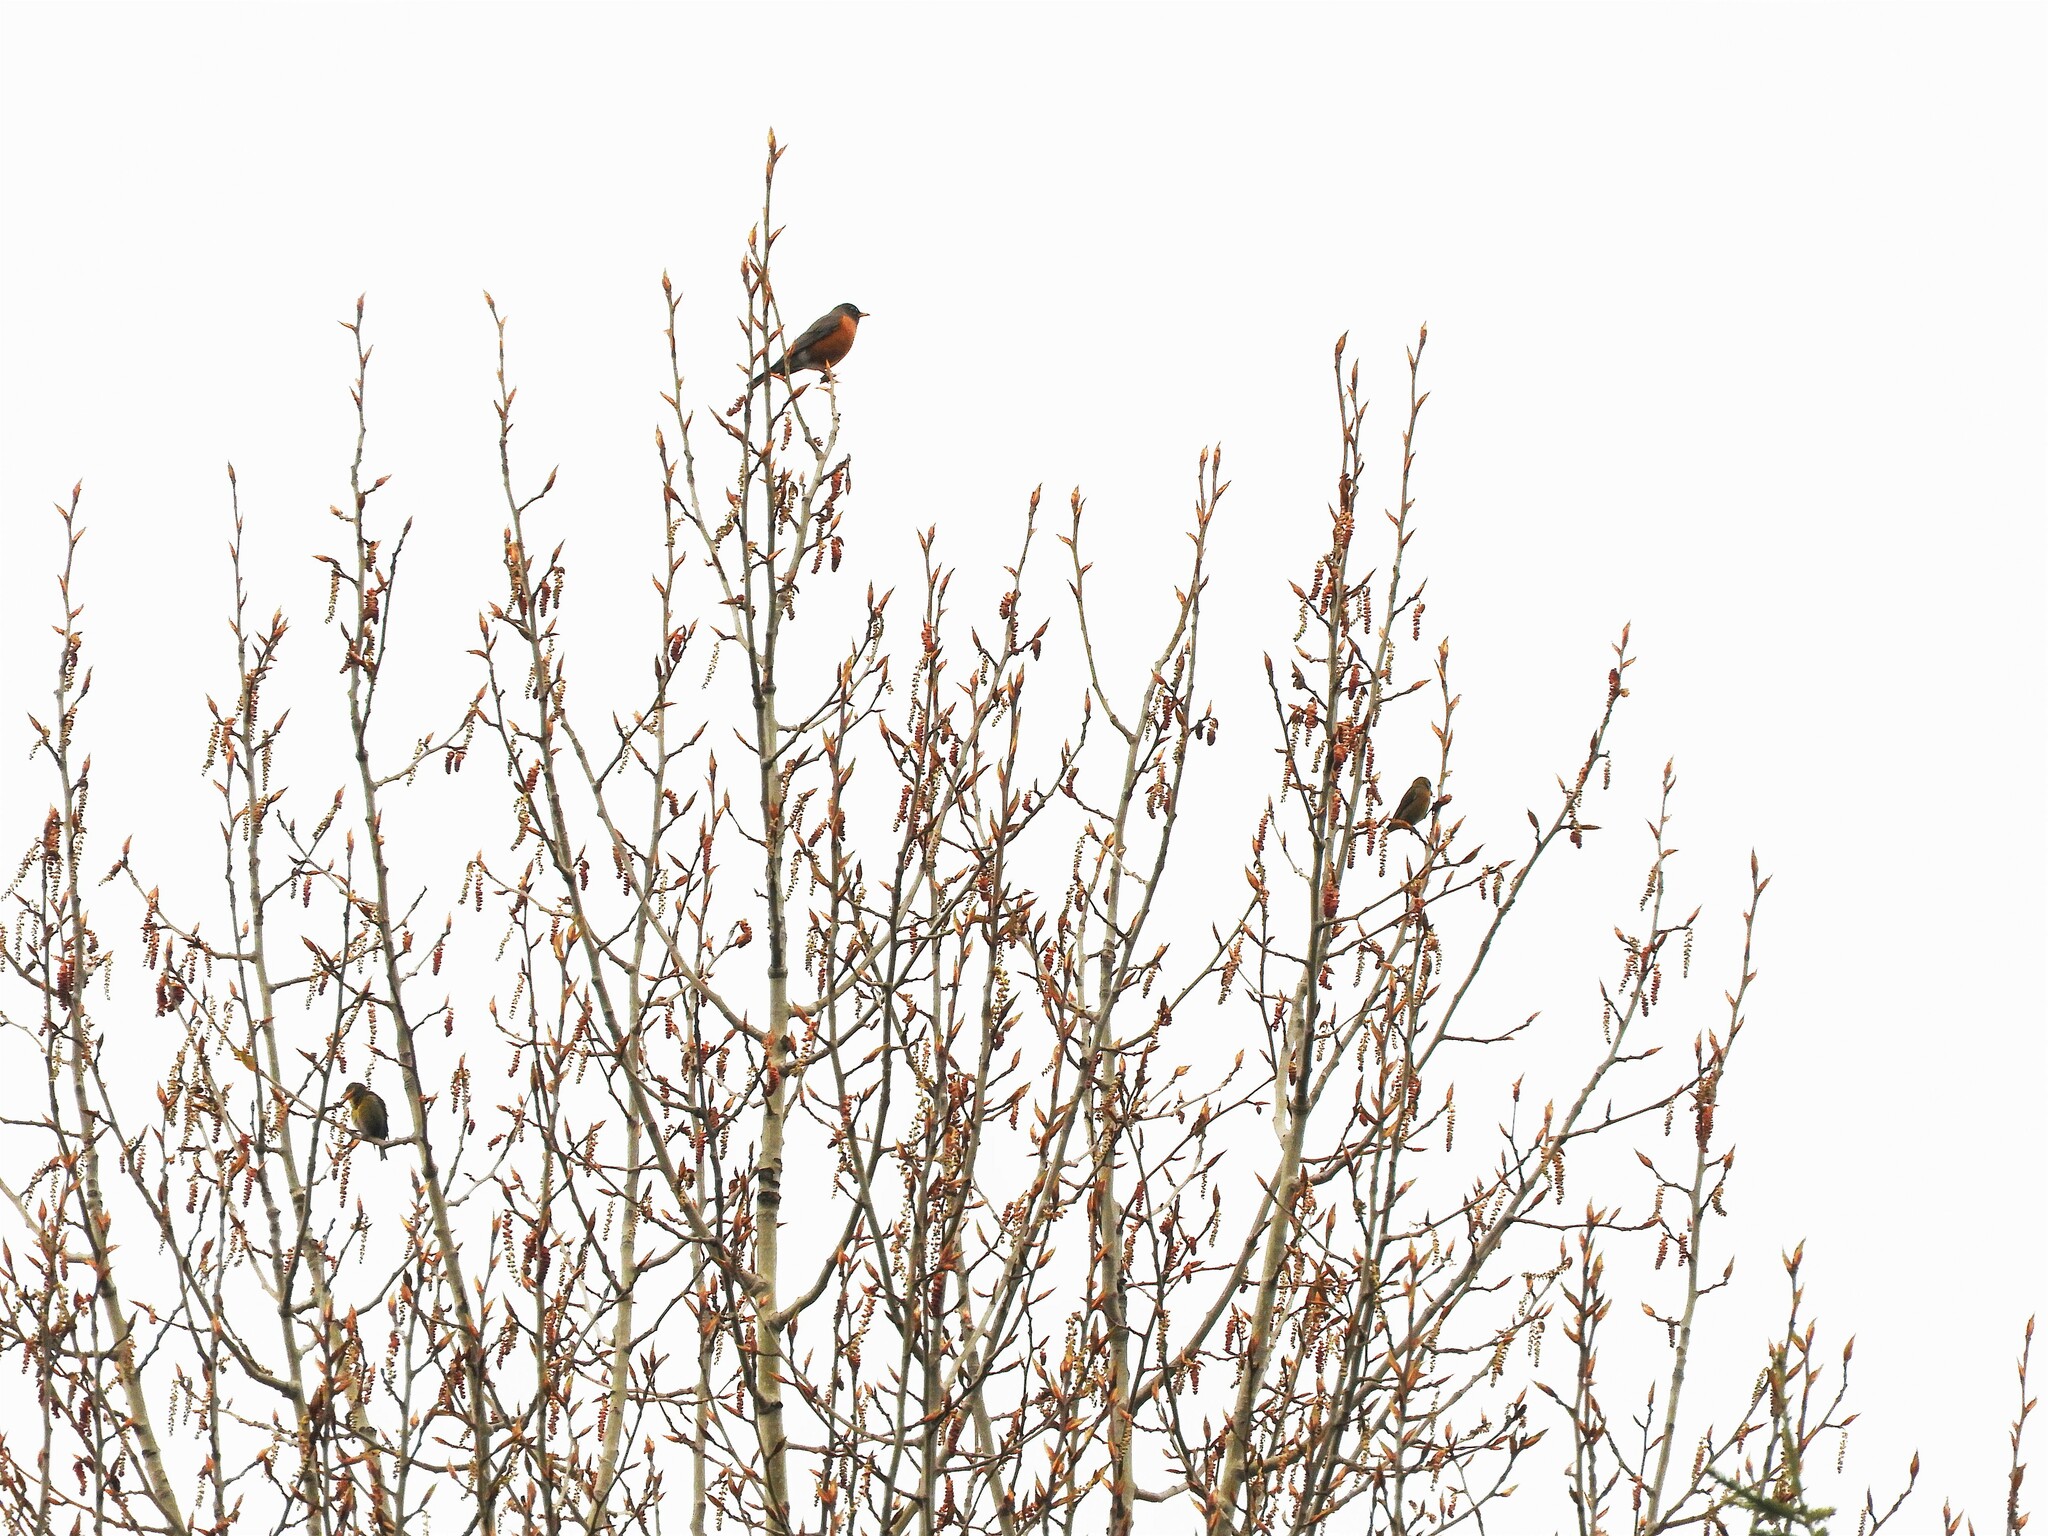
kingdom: Animalia
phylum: Chordata
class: Aves
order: Passeriformes
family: Fringillidae
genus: Loxia
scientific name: Loxia curvirostra
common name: Red crossbill
